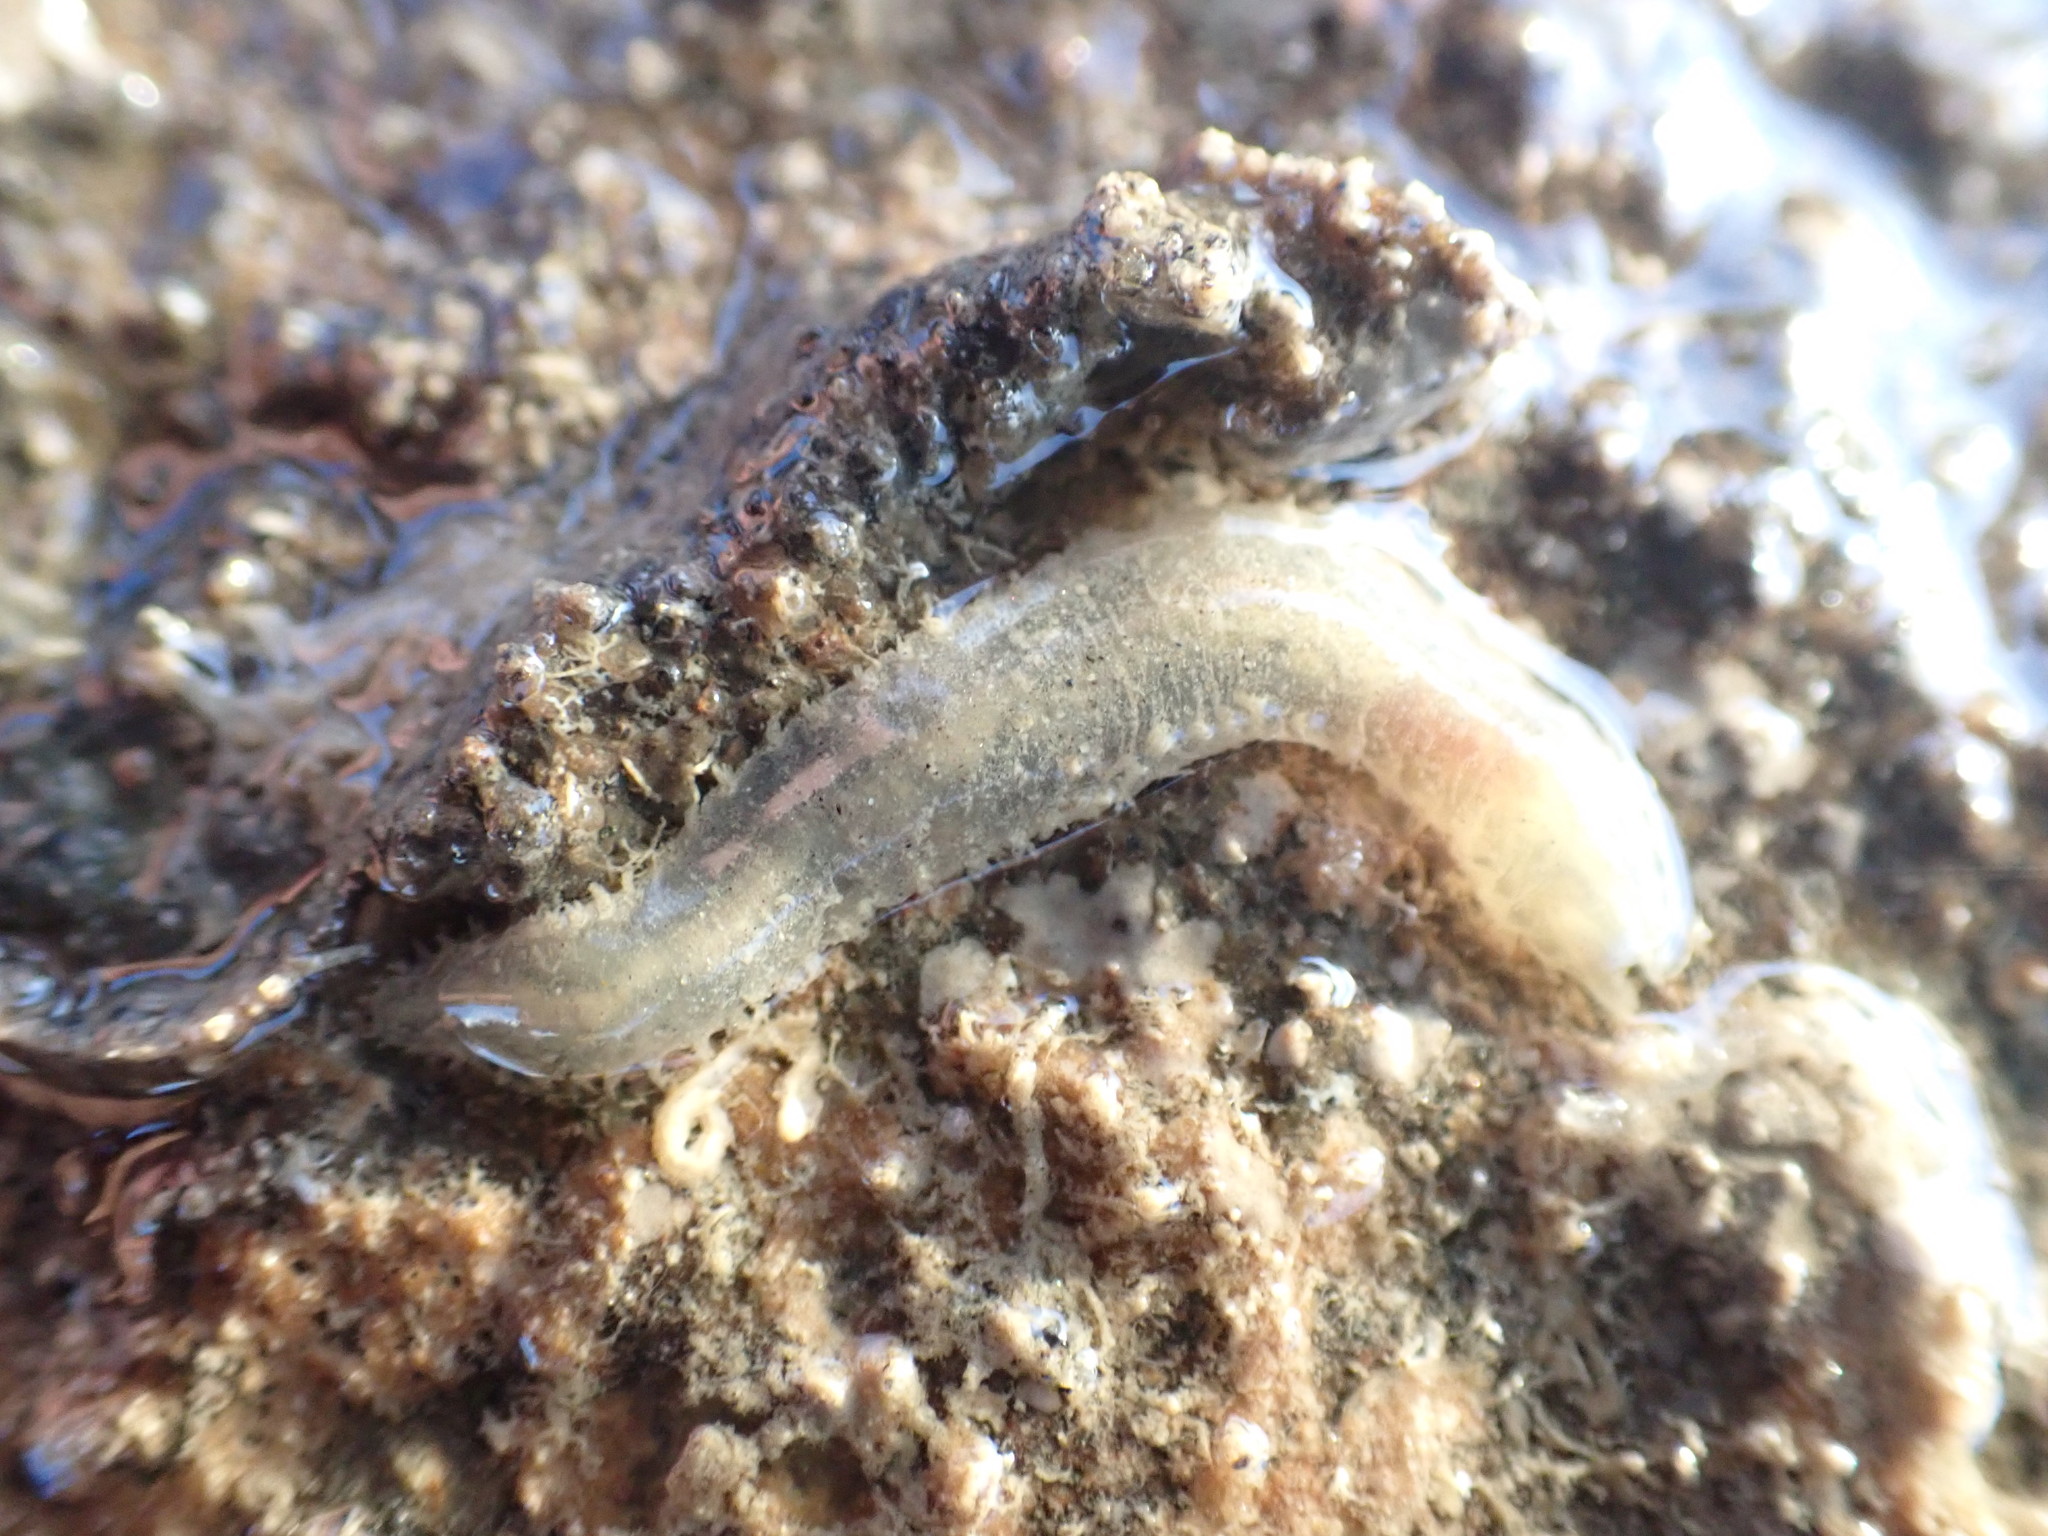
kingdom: Animalia
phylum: Annelida
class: Polychaeta
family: Flabelligeridae
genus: Flabelligera
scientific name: Flabelligera bicolor
